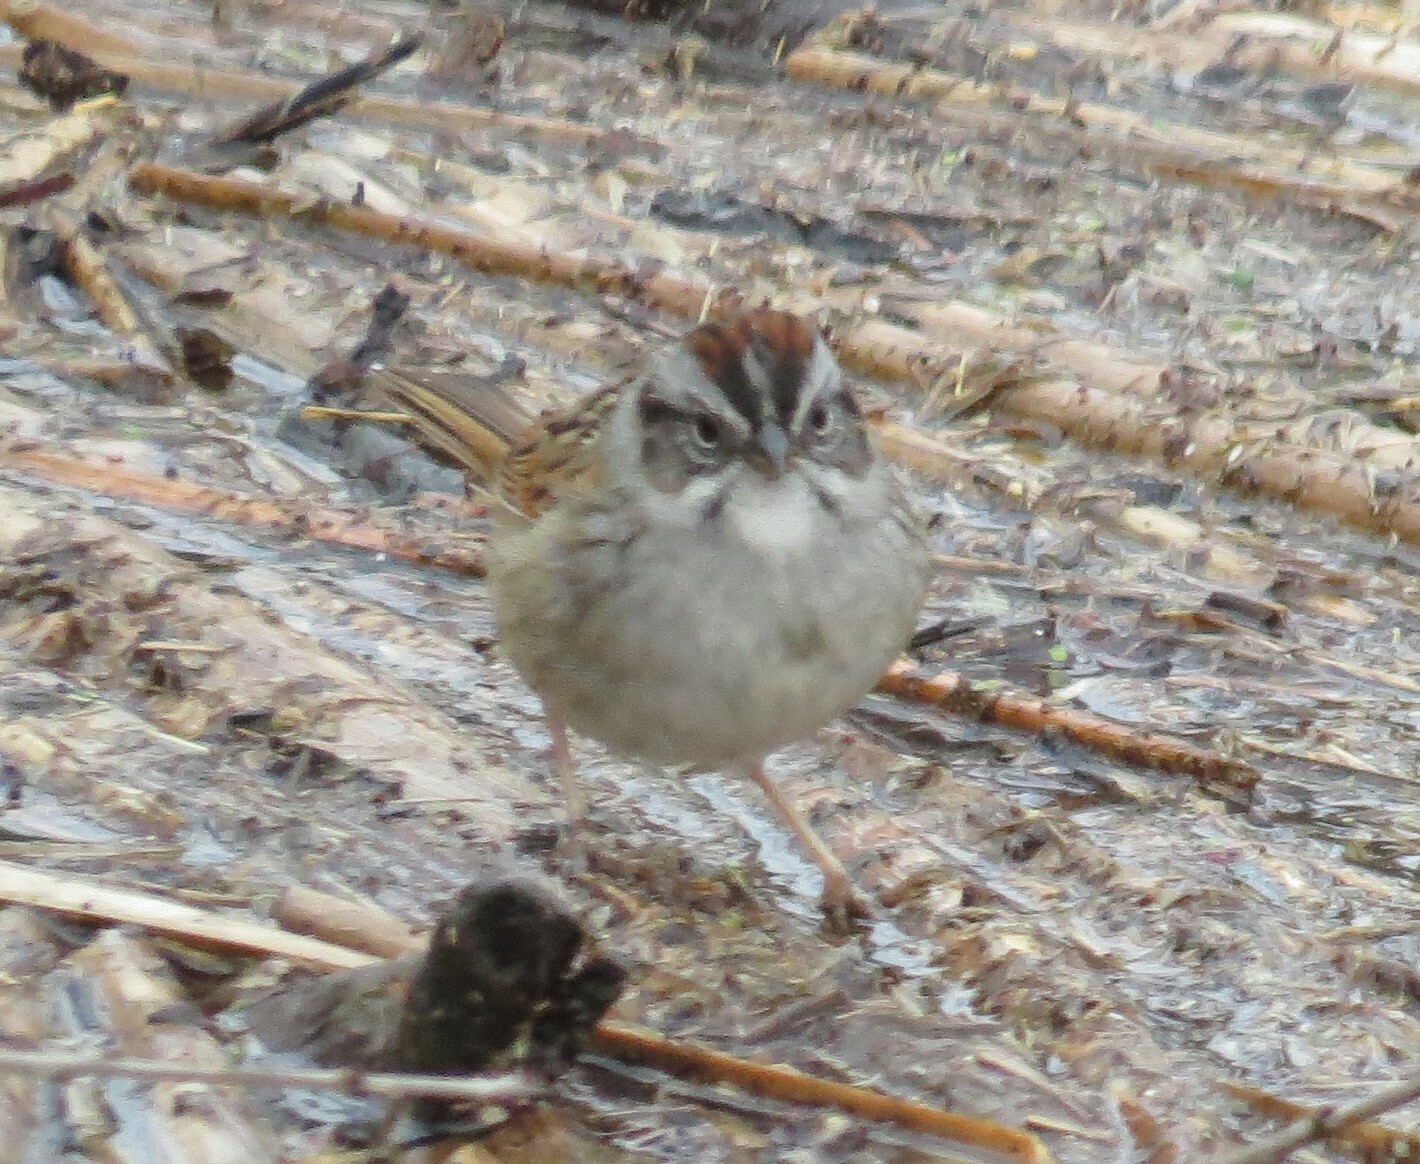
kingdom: Animalia
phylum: Chordata
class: Aves
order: Passeriformes
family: Passerellidae
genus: Melospiza
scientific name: Melospiza georgiana
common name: Swamp sparrow
